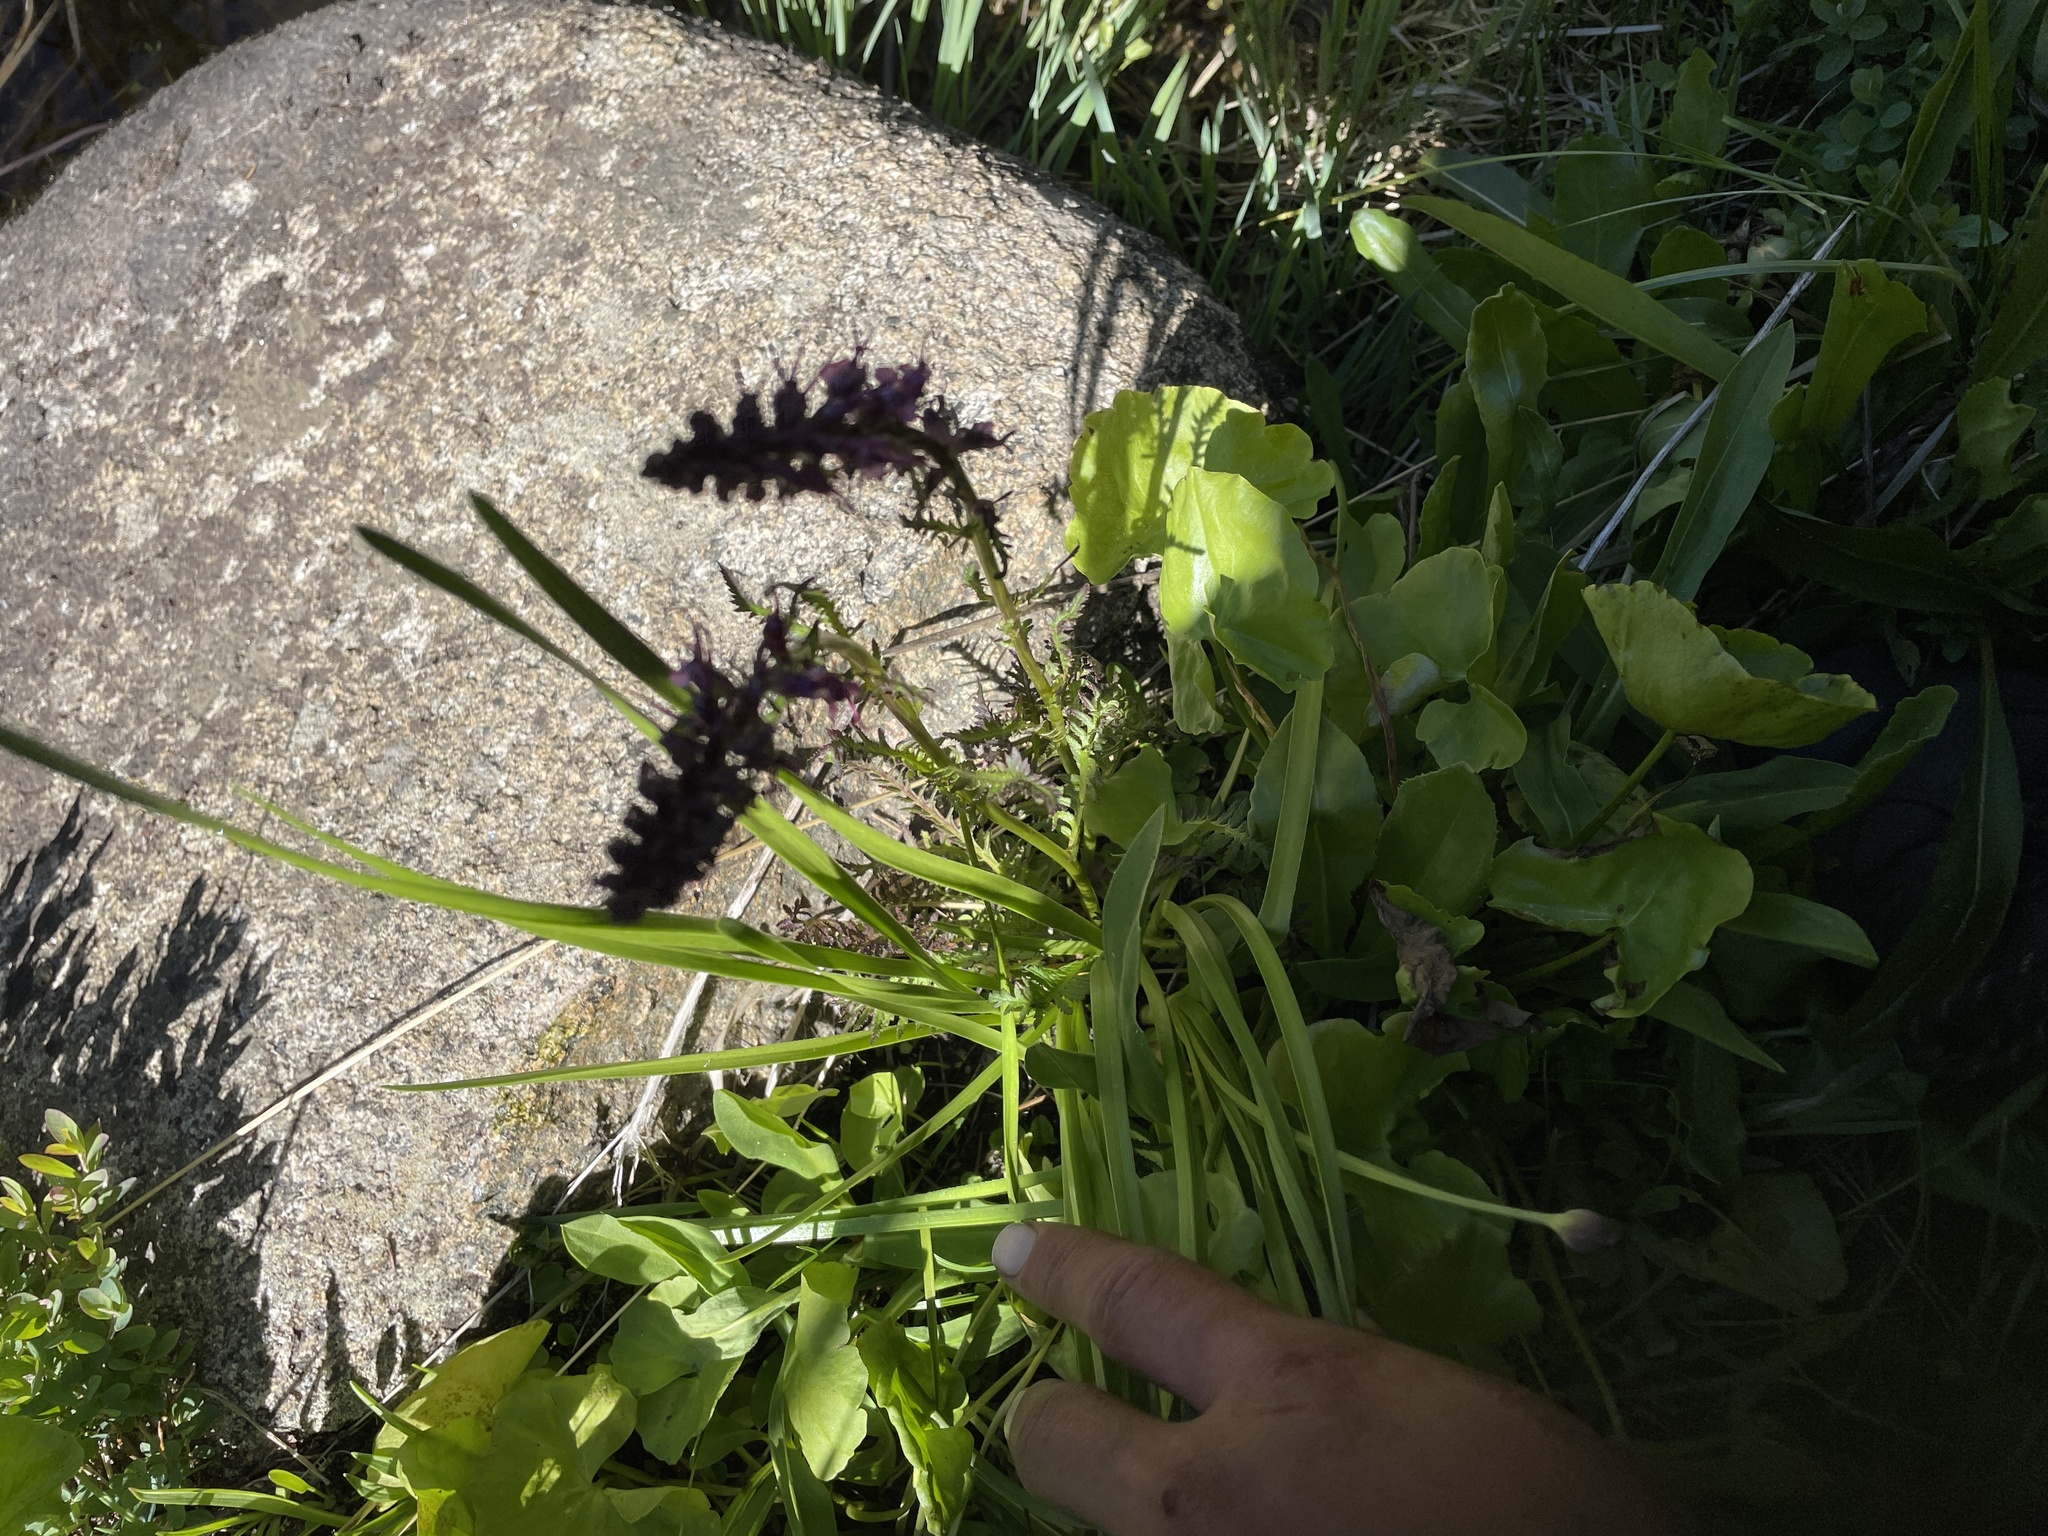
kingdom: Plantae
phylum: Tracheophyta
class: Magnoliopsida
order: Lamiales
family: Orobanchaceae
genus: Pedicularis
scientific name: Pedicularis groenlandica
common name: Elephant's-head
